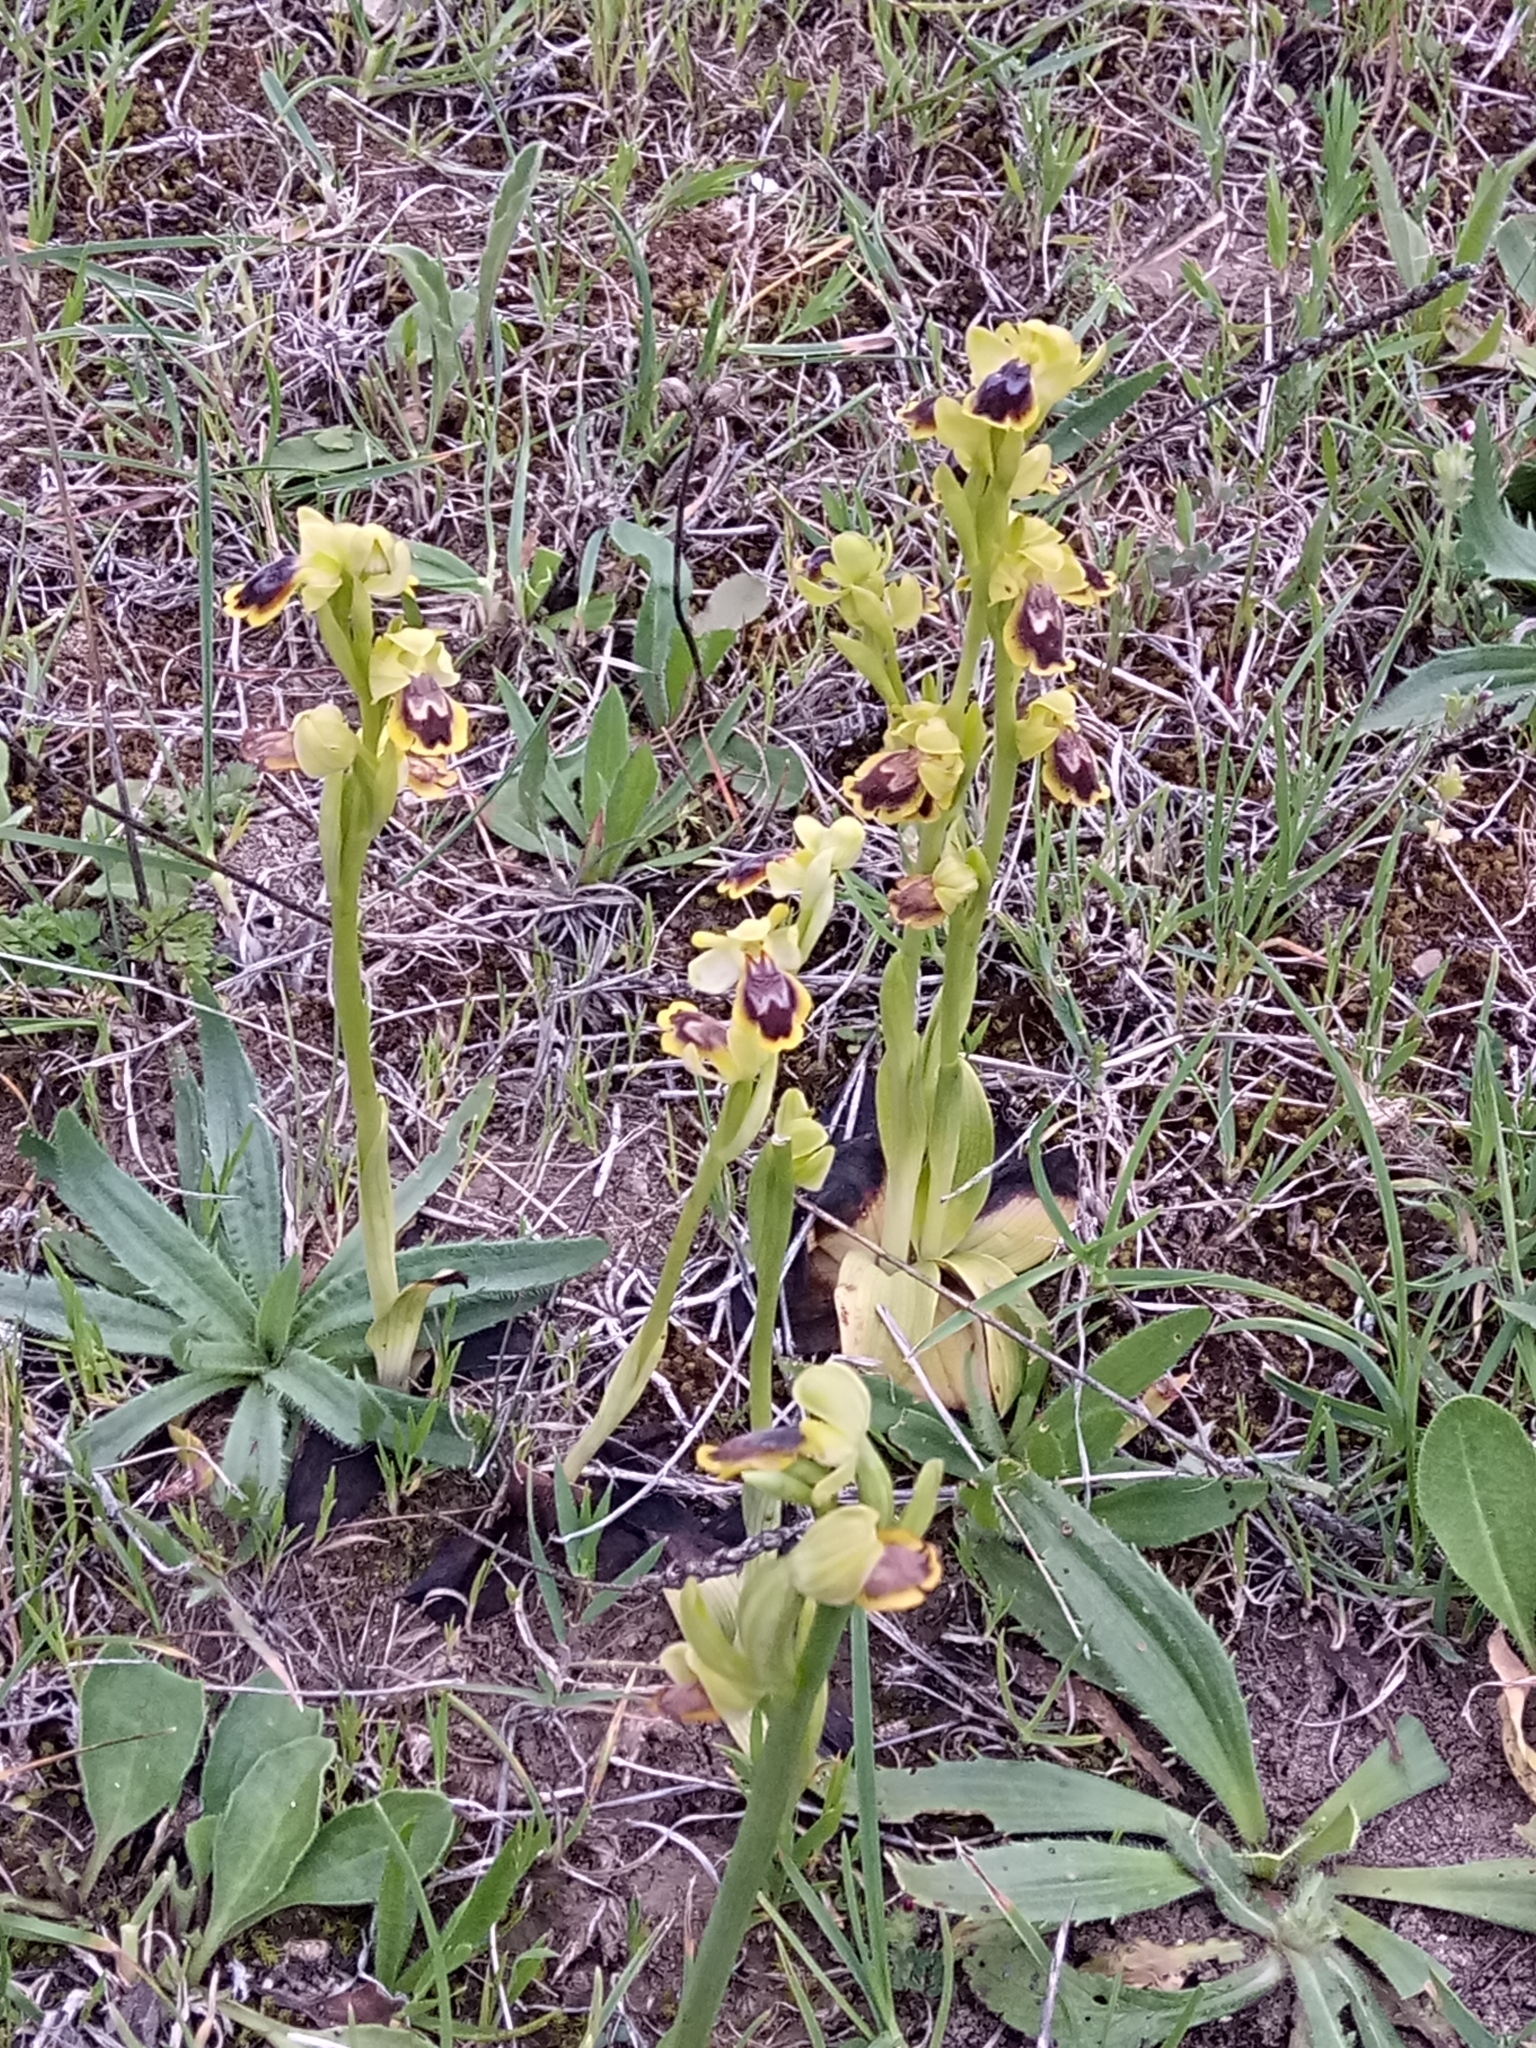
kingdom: Plantae
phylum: Tracheophyta
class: Liliopsida
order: Asparagales
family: Orchidaceae
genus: Ophrys
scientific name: Ophrys lutea
